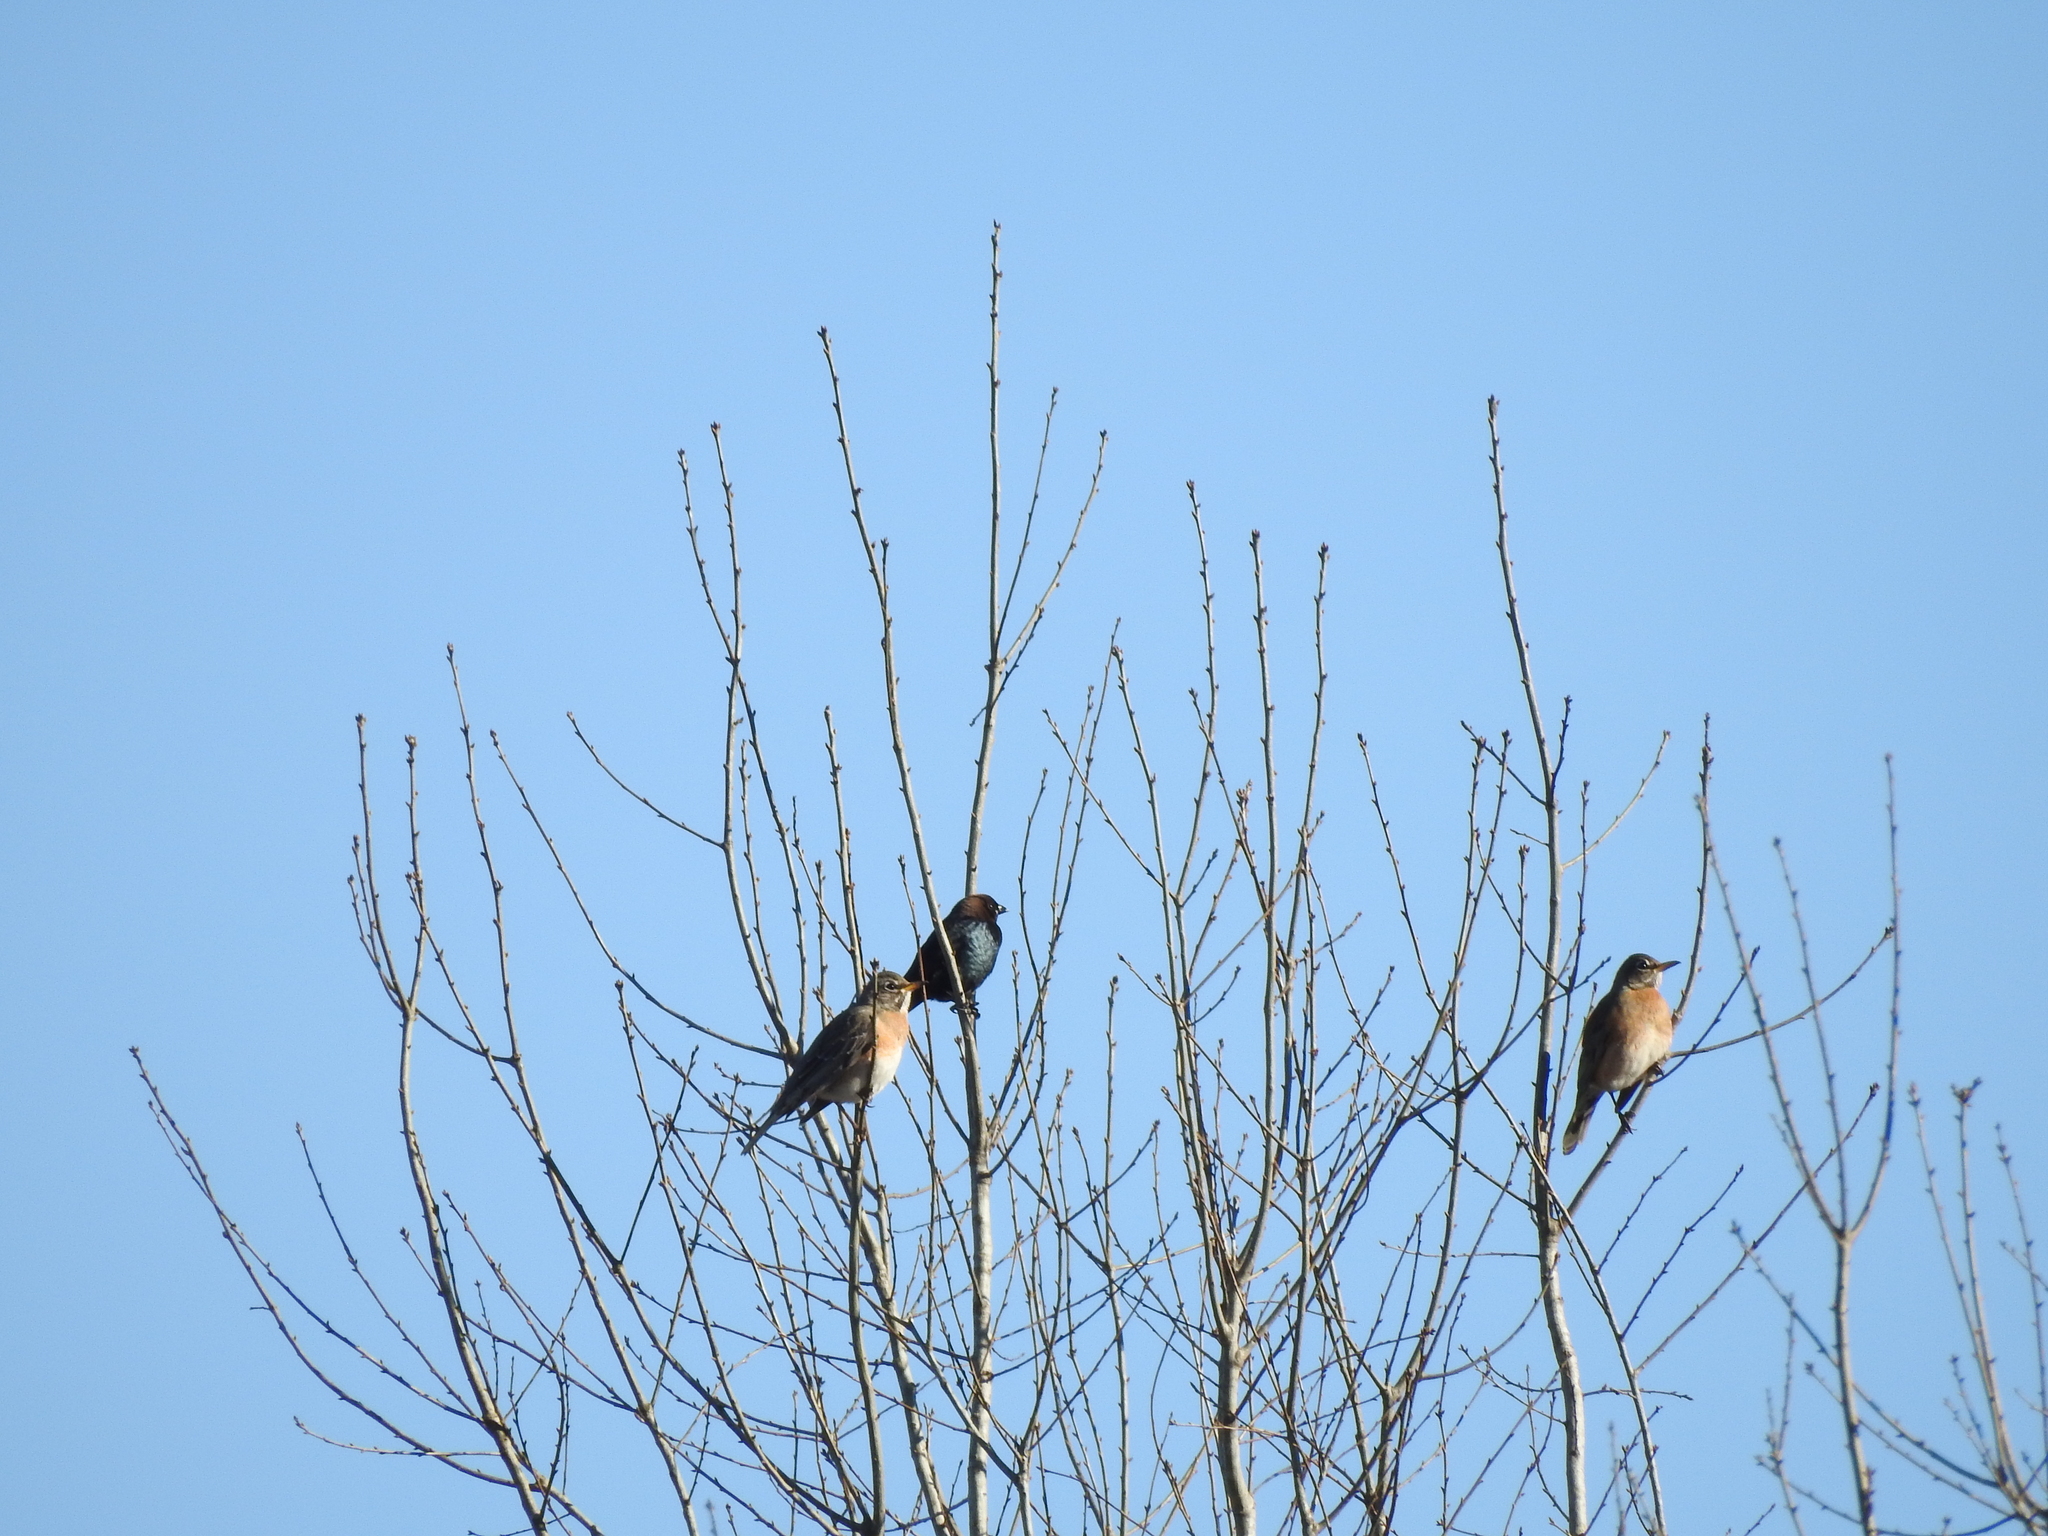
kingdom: Animalia
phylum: Chordata
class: Aves
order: Passeriformes
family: Icteridae
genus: Molothrus
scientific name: Molothrus ater
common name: Brown-headed cowbird
